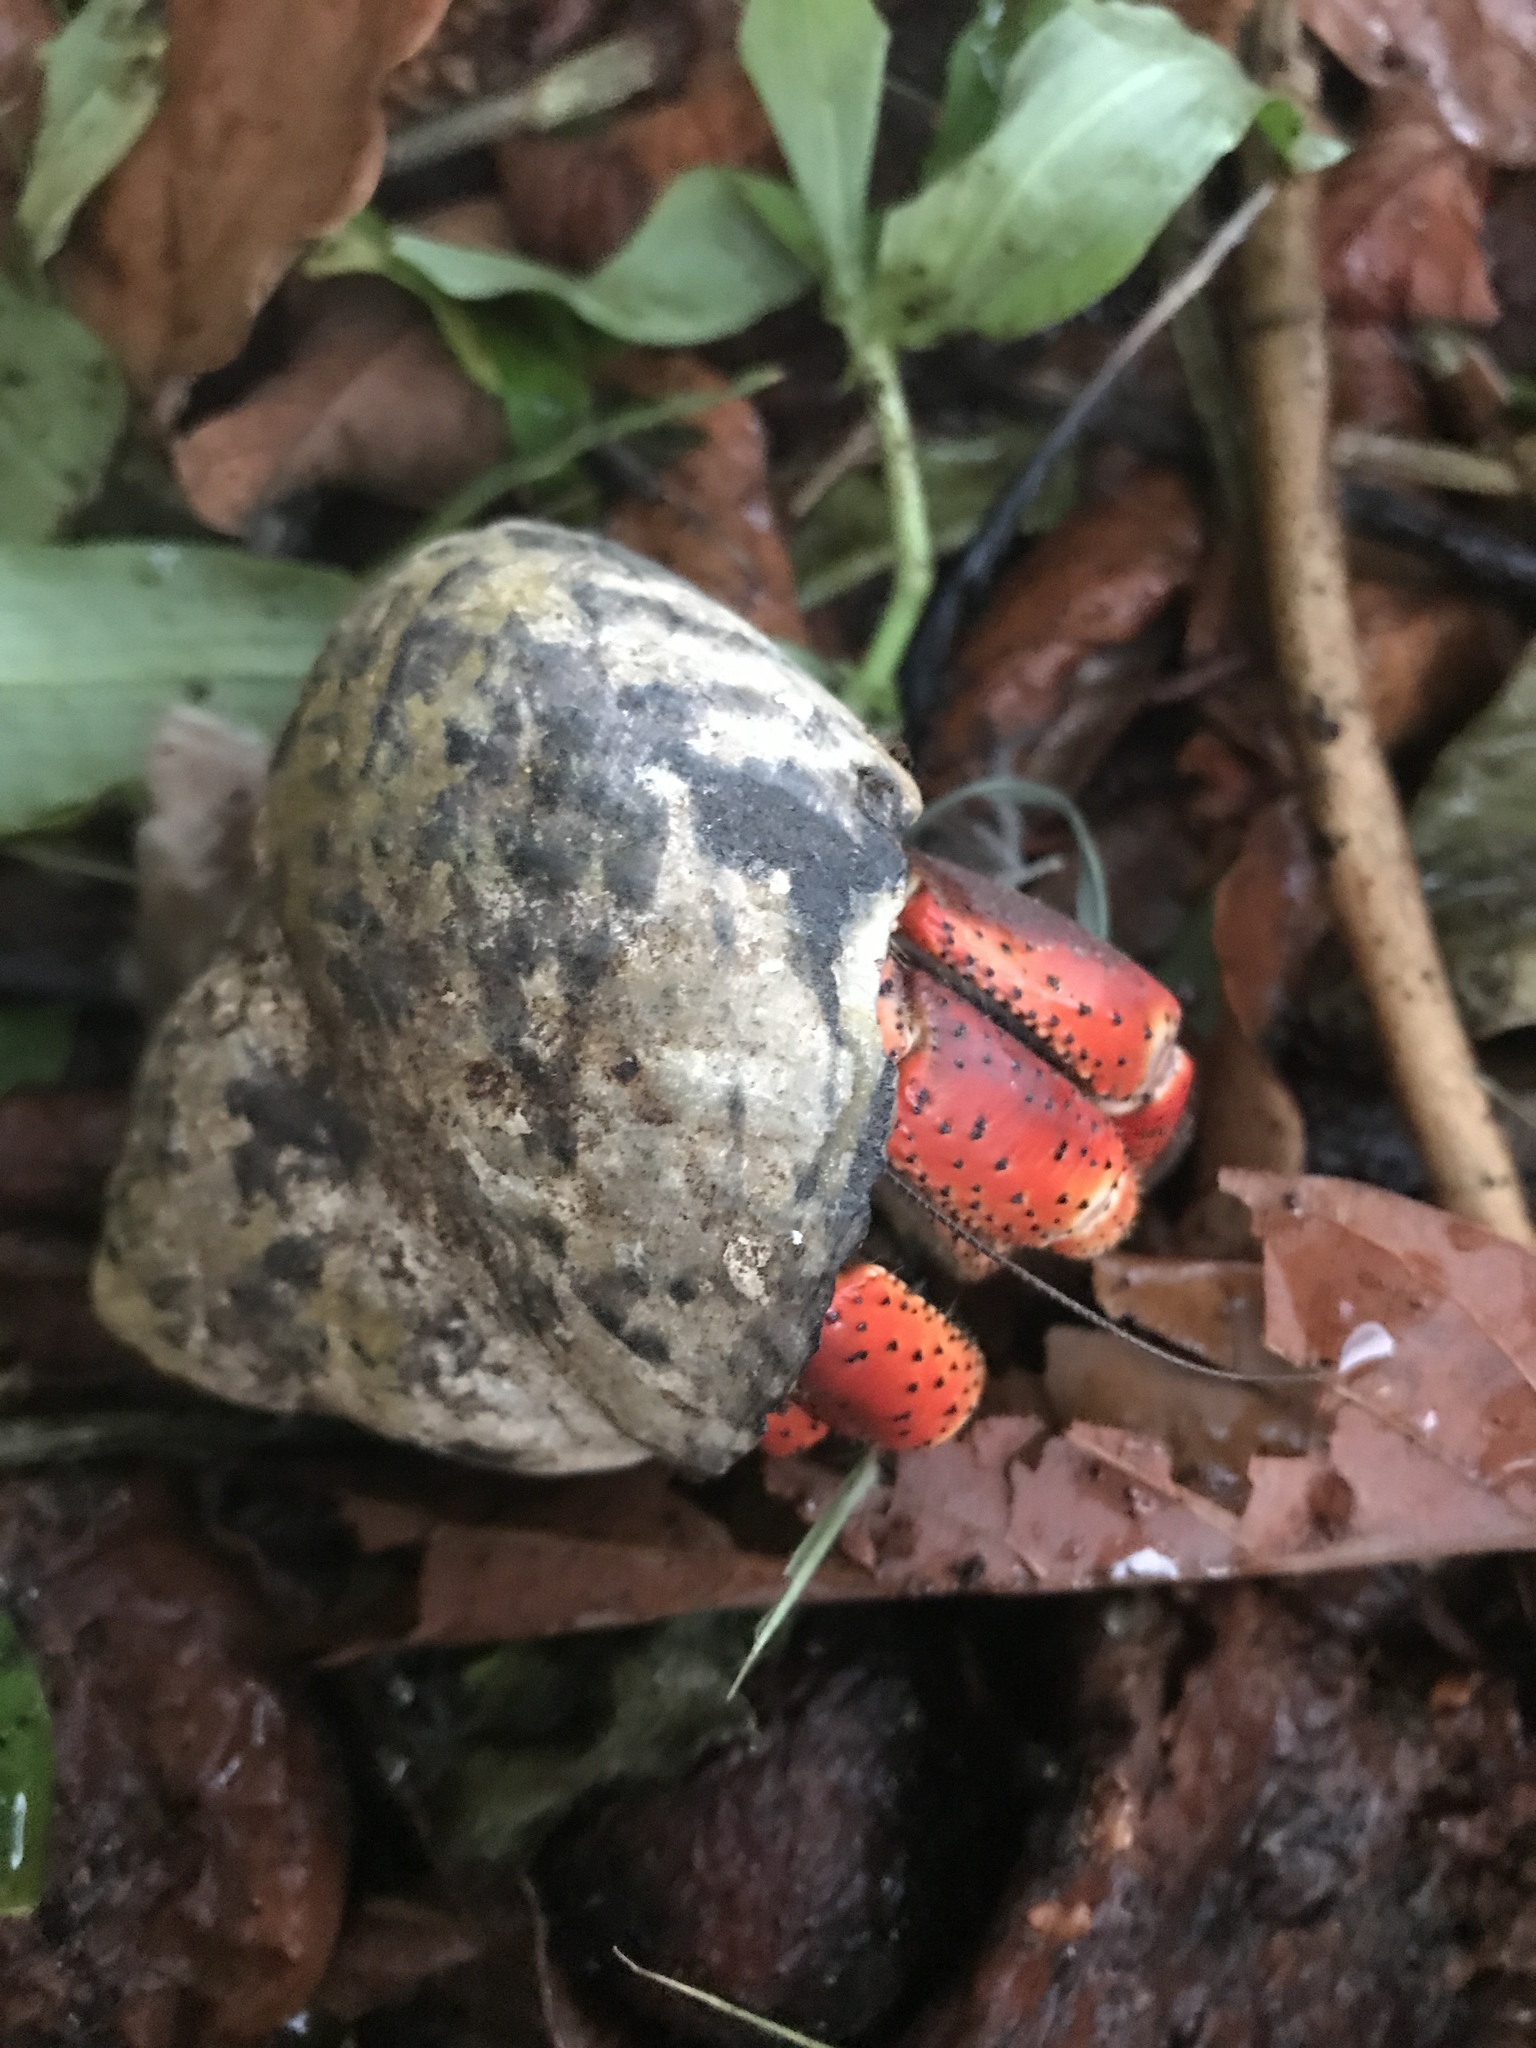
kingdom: Animalia
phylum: Arthropoda
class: Malacostraca
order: Decapoda
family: Coenobitidae
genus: Coenobita
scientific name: Coenobita clypeatus
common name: Caribbean hermit crab
